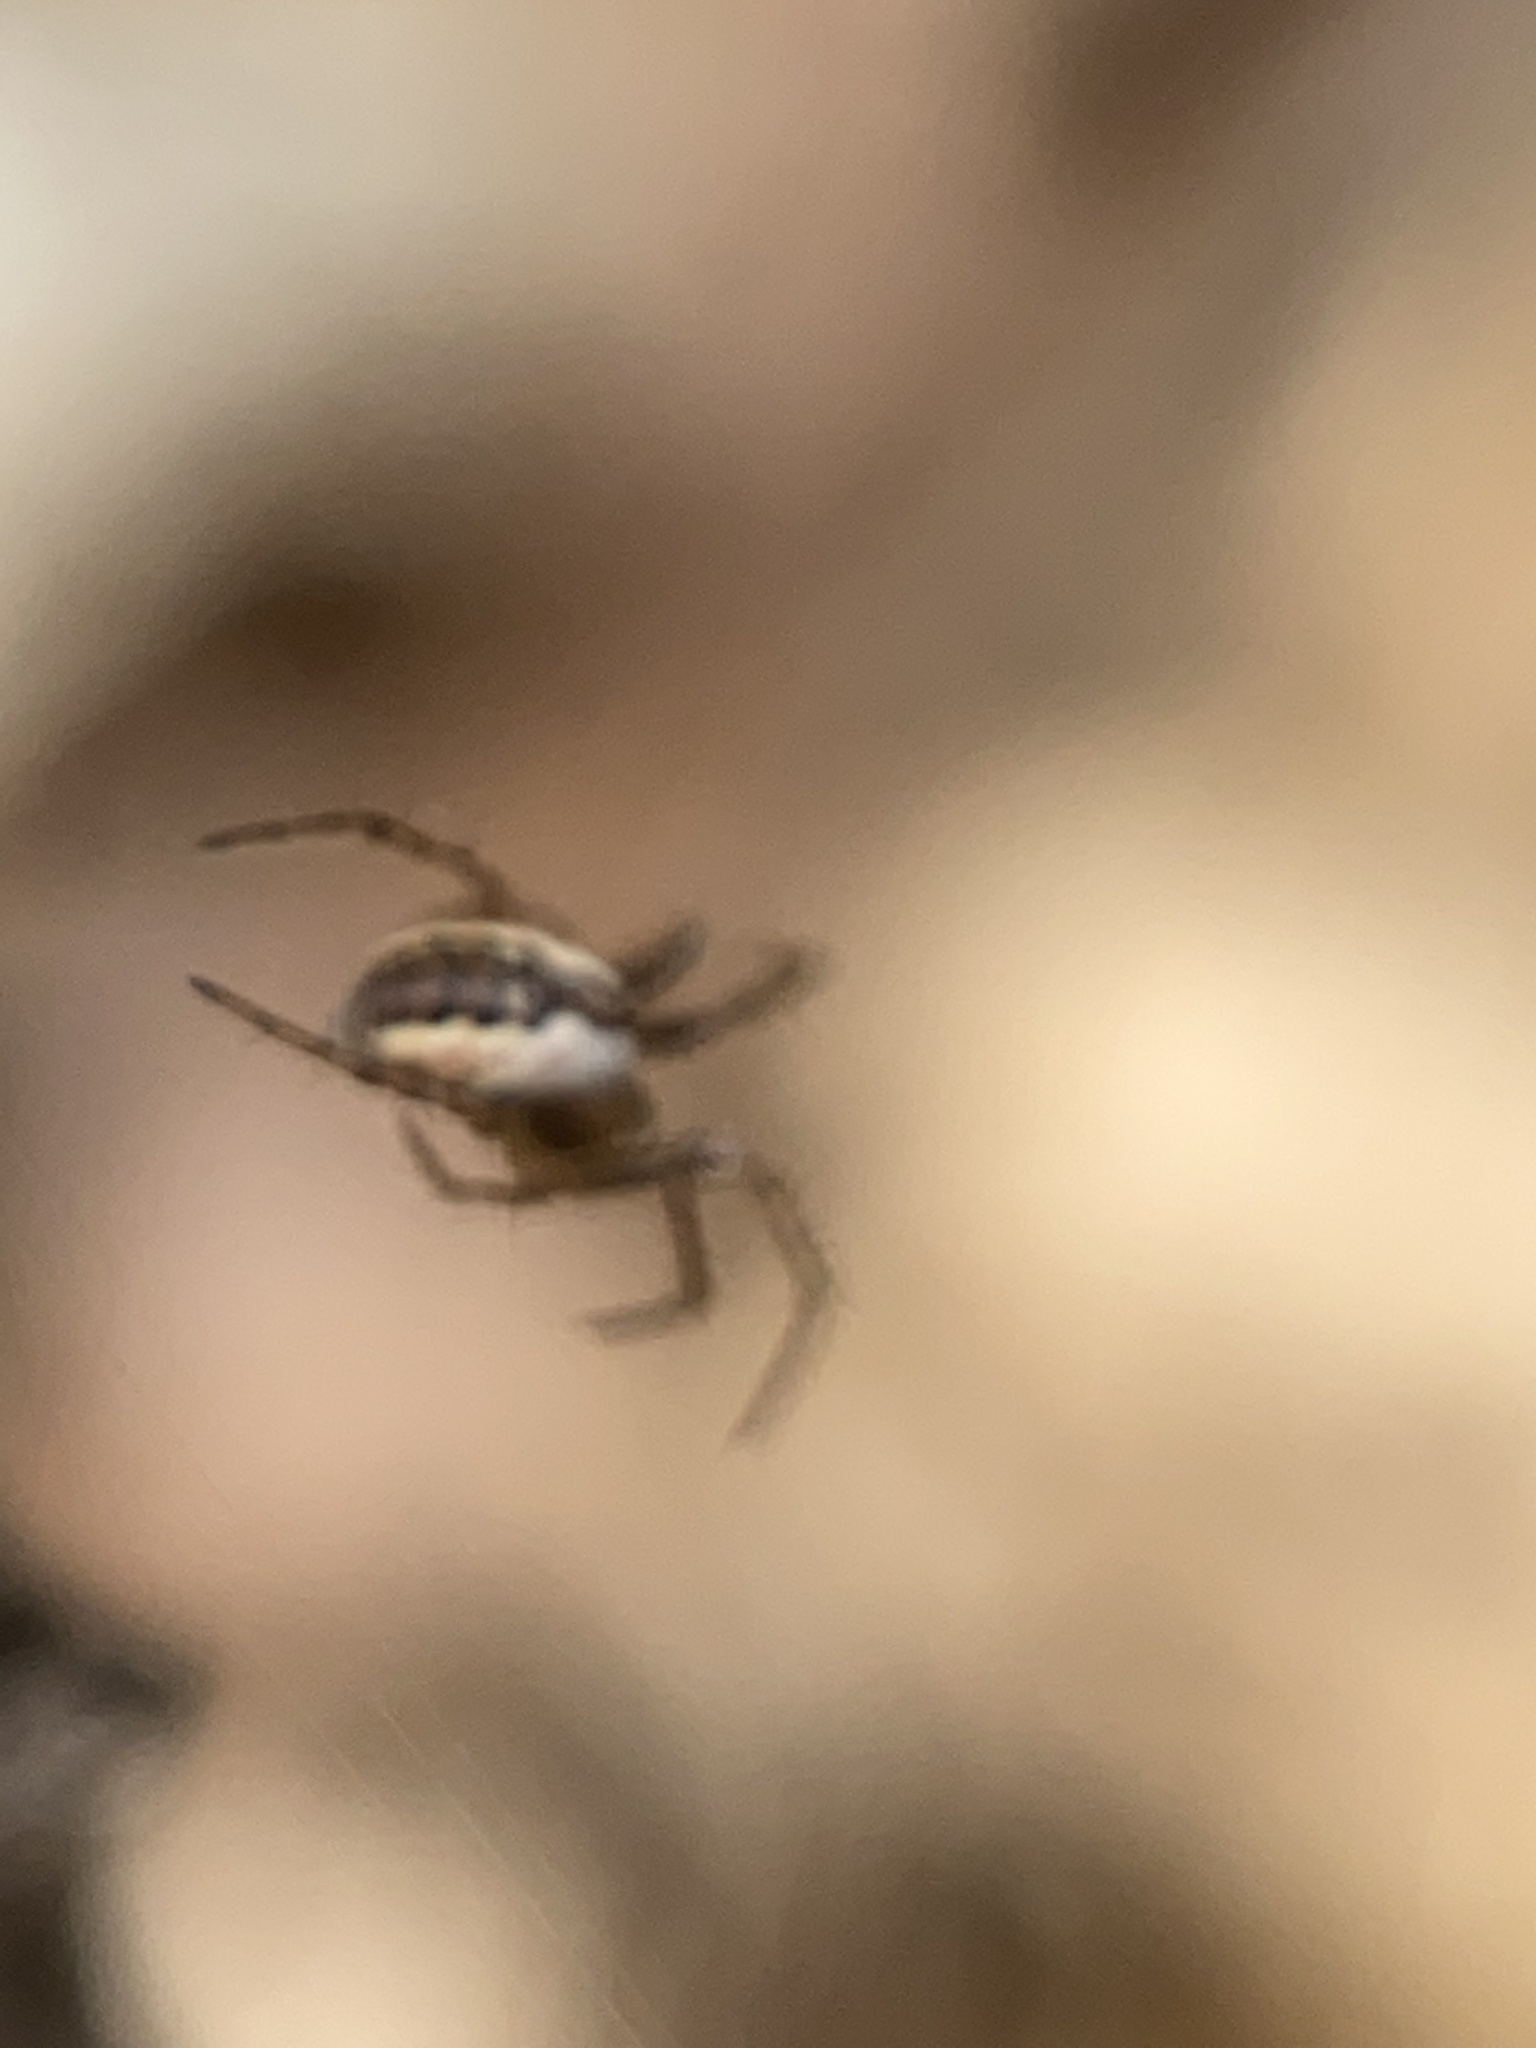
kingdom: Animalia
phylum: Arthropoda
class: Arachnida
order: Araneae
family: Araneidae
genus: Mangora
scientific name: Mangora placida
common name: Tuft-legged orbweaver
